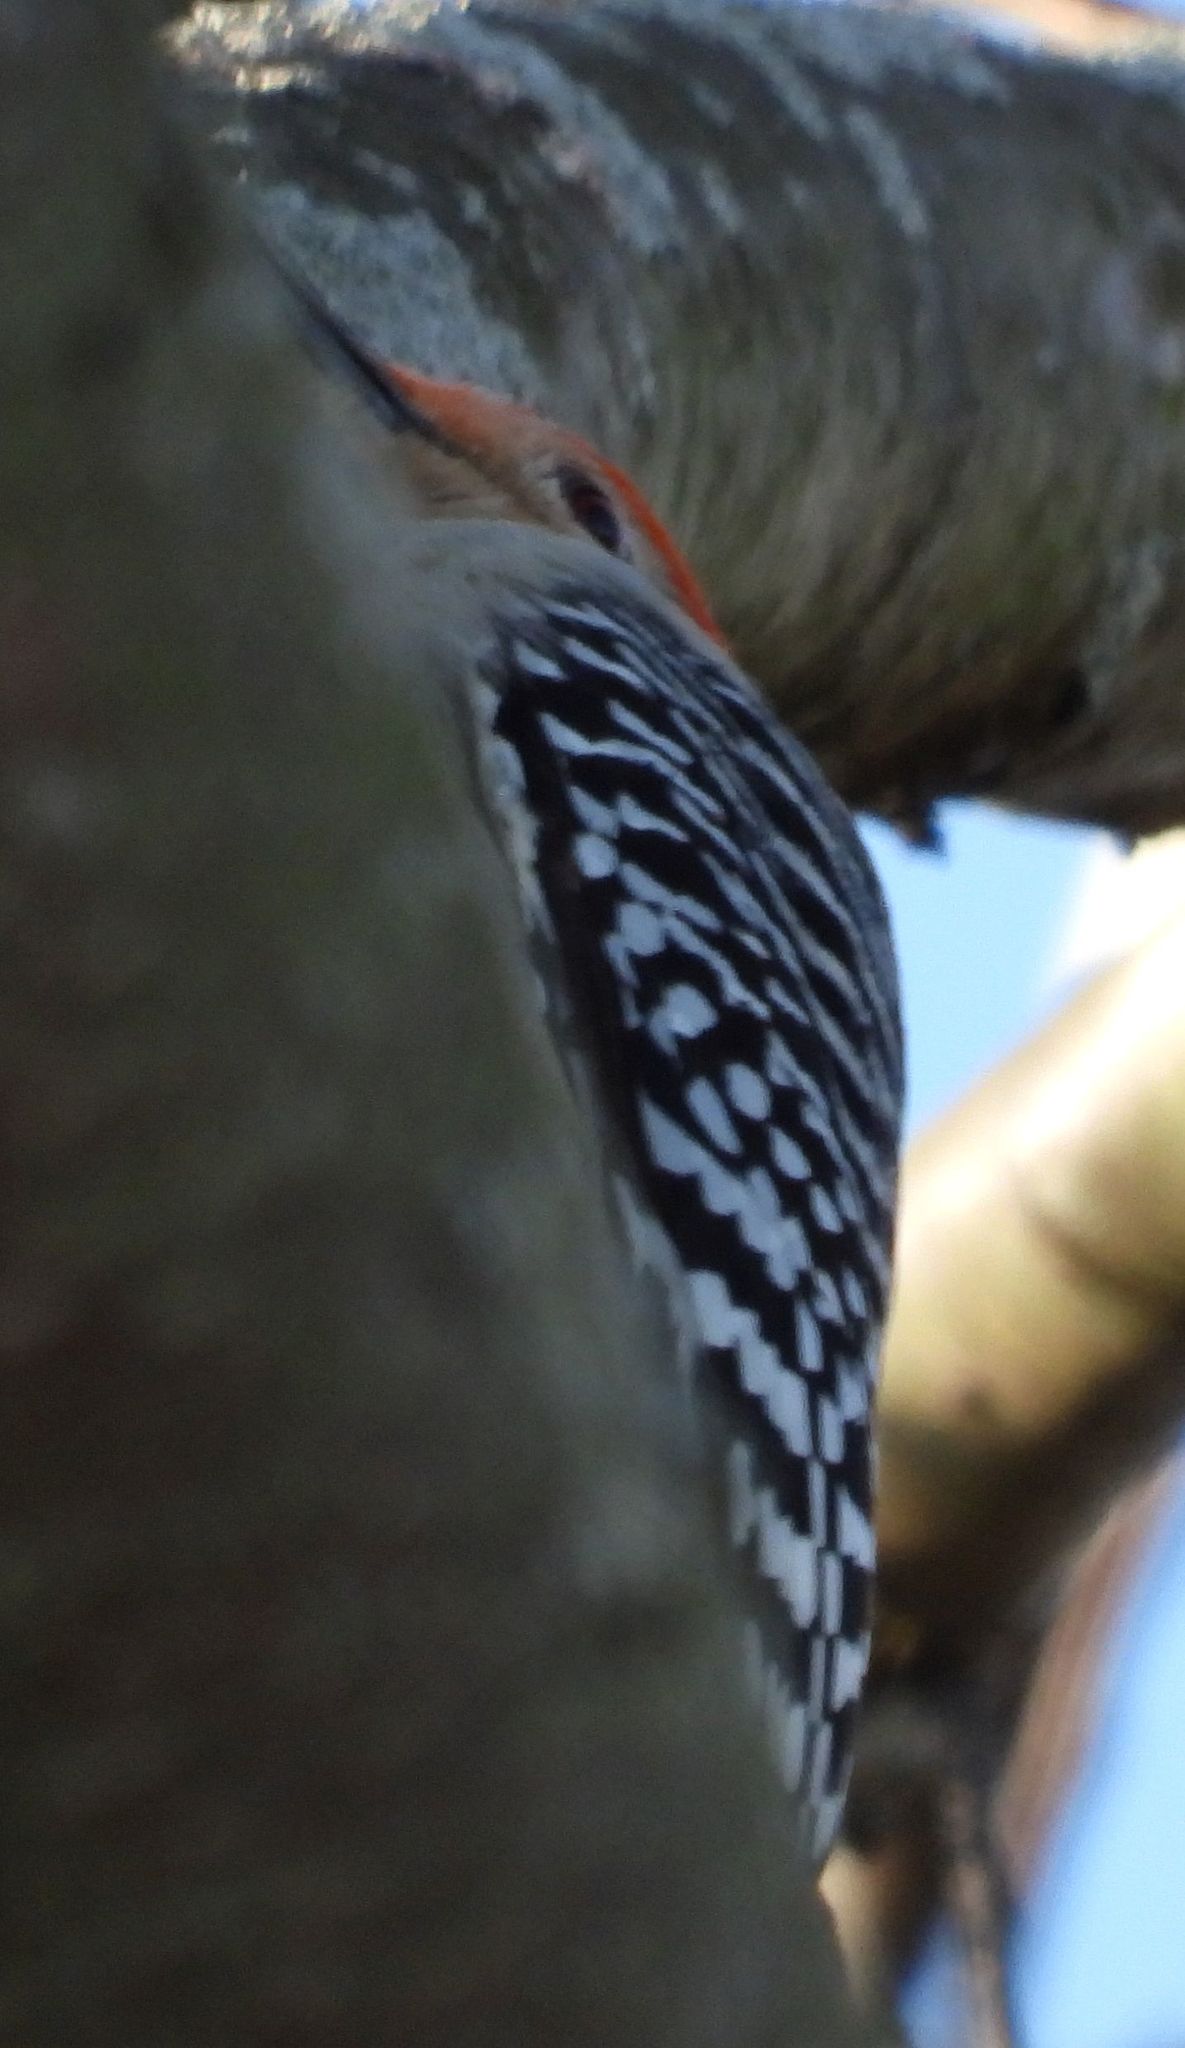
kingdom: Animalia
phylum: Chordata
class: Aves
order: Piciformes
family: Picidae
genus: Melanerpes
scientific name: Melanerpes carolinus
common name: Red-bellied woodpecker
